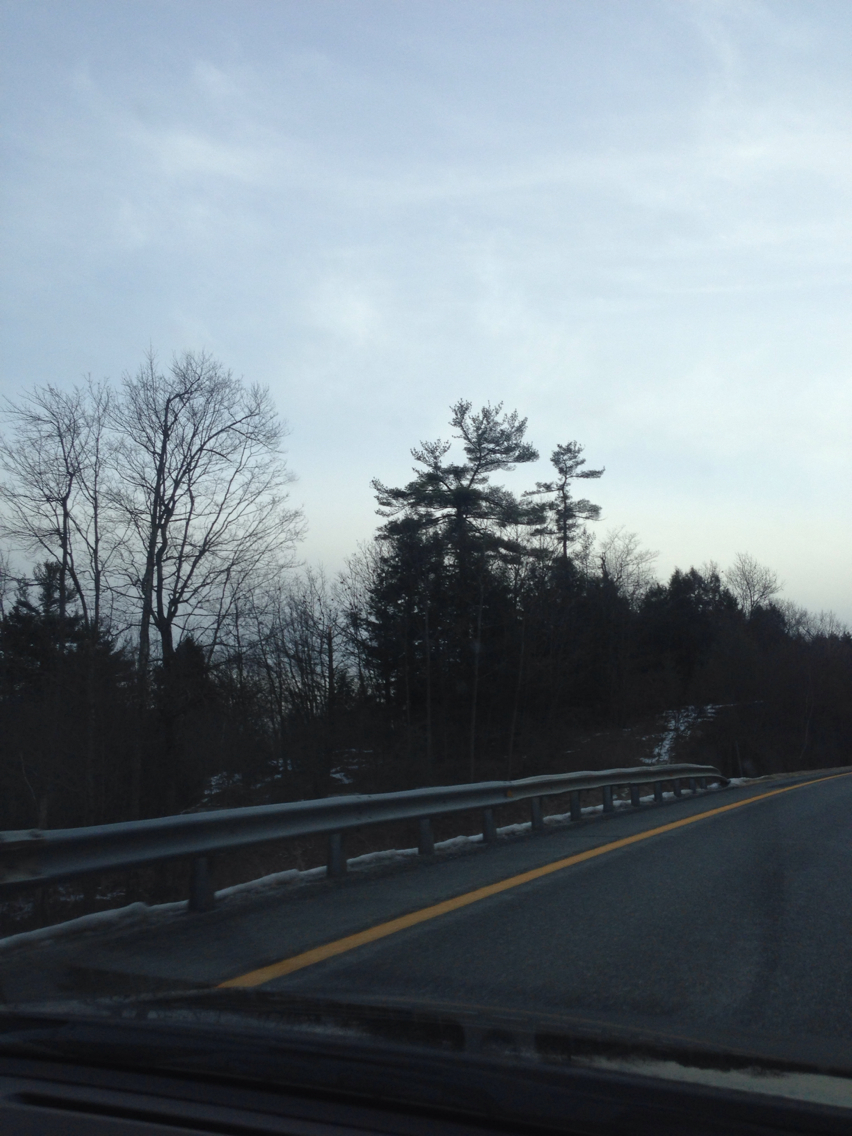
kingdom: Plantae
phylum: Tracheophyta
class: Pinopsida
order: Pinales
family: Pinaceae
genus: Pinus
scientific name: Pinus strobus
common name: Weymouth pine
